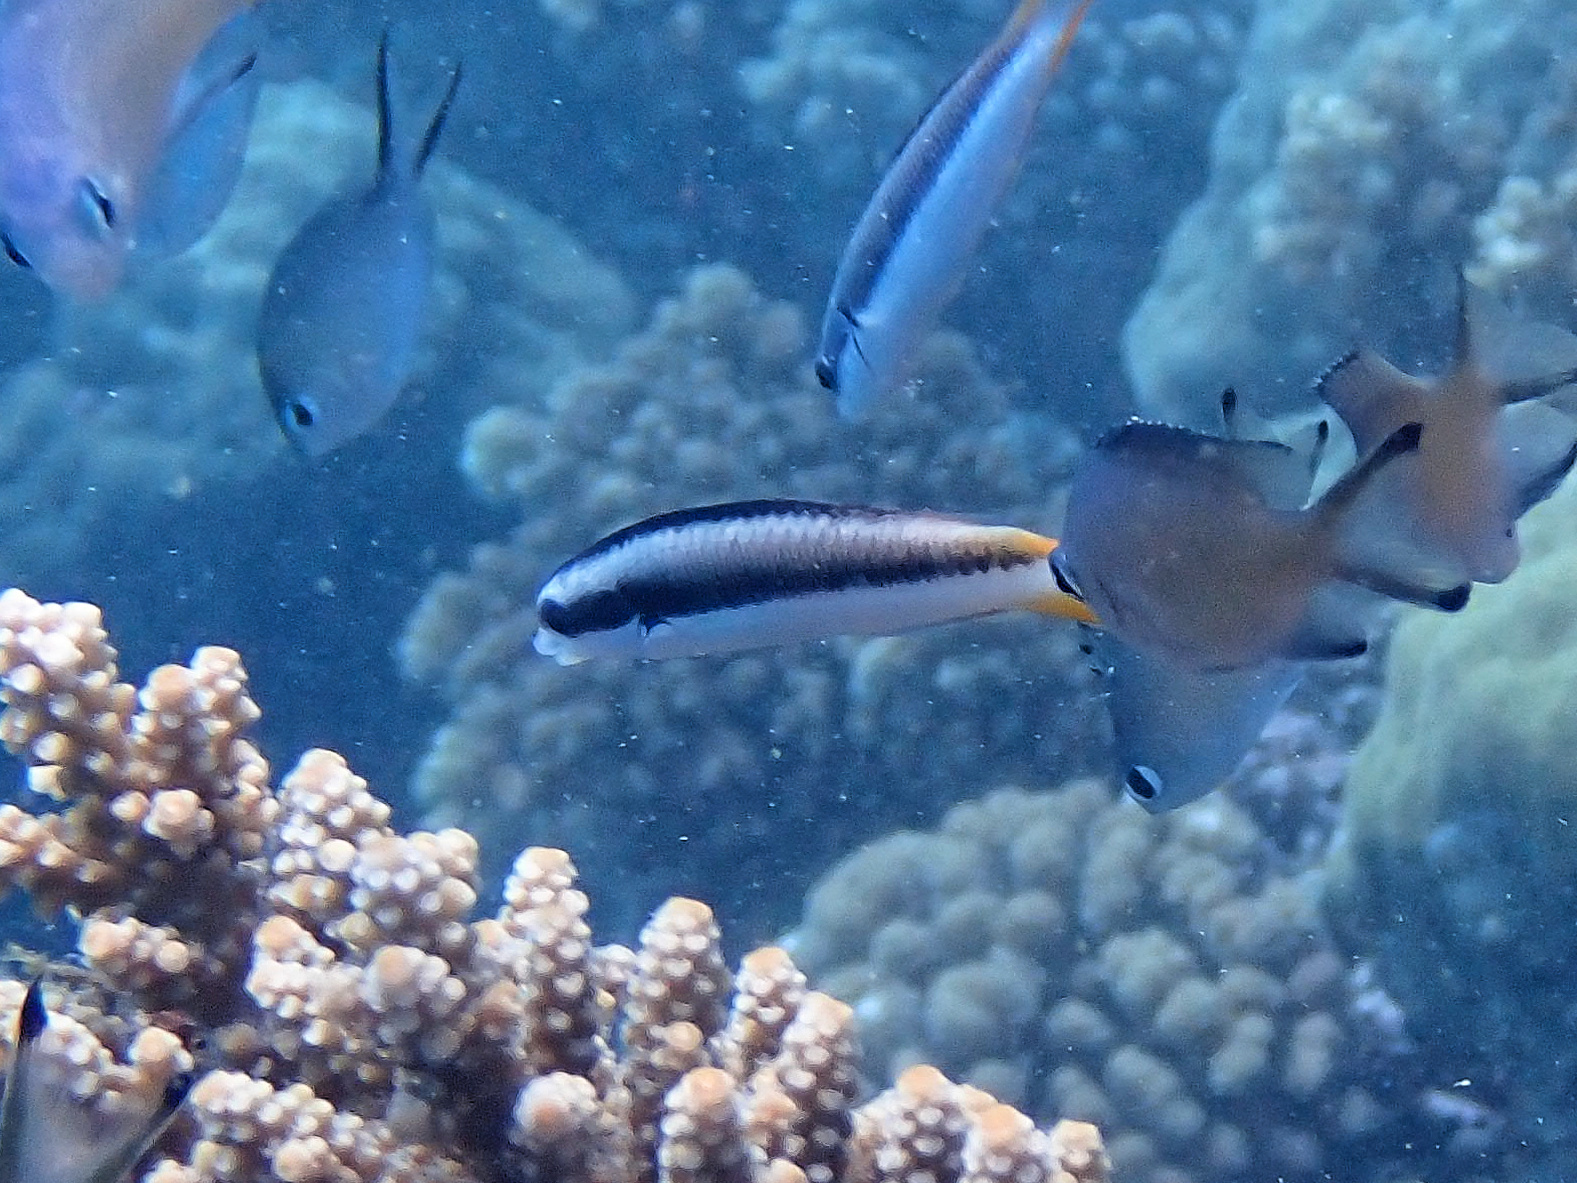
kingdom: Animalia
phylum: Chordata
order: Perciformes
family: Labridae
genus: Thalassoma
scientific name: Thalassoma amblycephalum
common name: Bluehead wrasse
